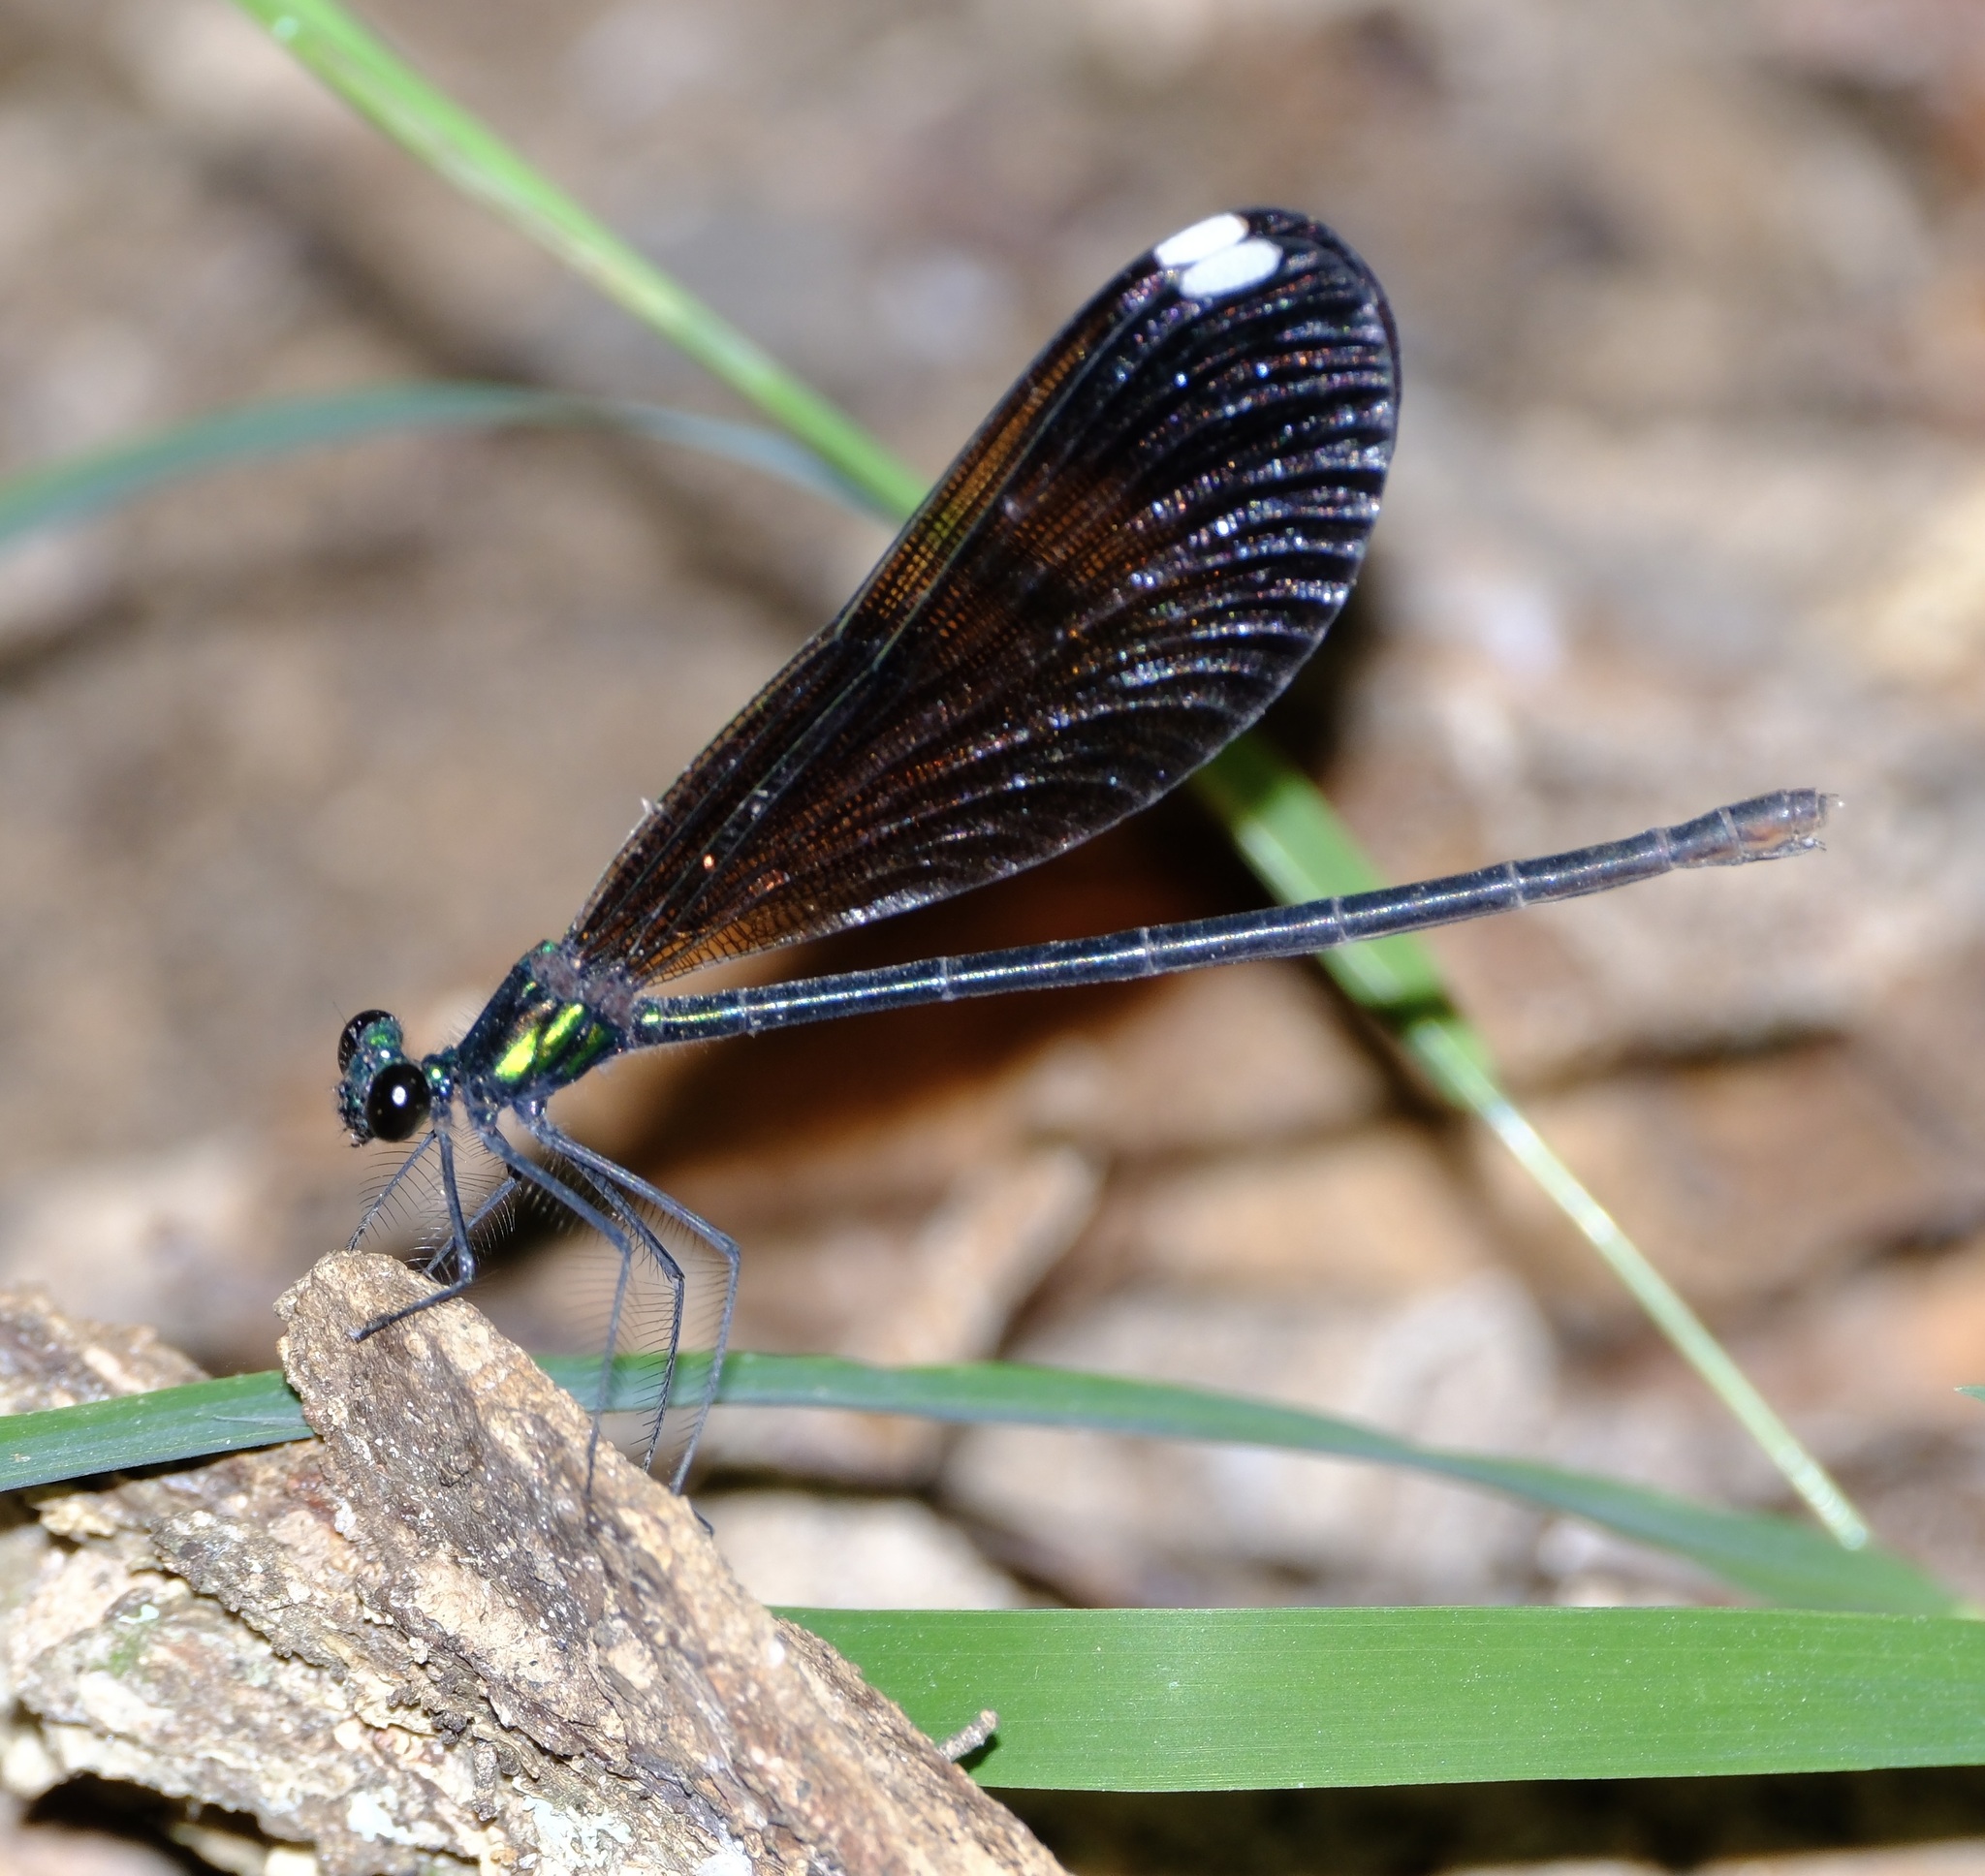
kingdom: Animalia
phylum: Arthropoda
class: Insecta
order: Odonata
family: Calopterygidae
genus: Calopteryx
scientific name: Calopteryx maculata
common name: Ebony jewelwing
